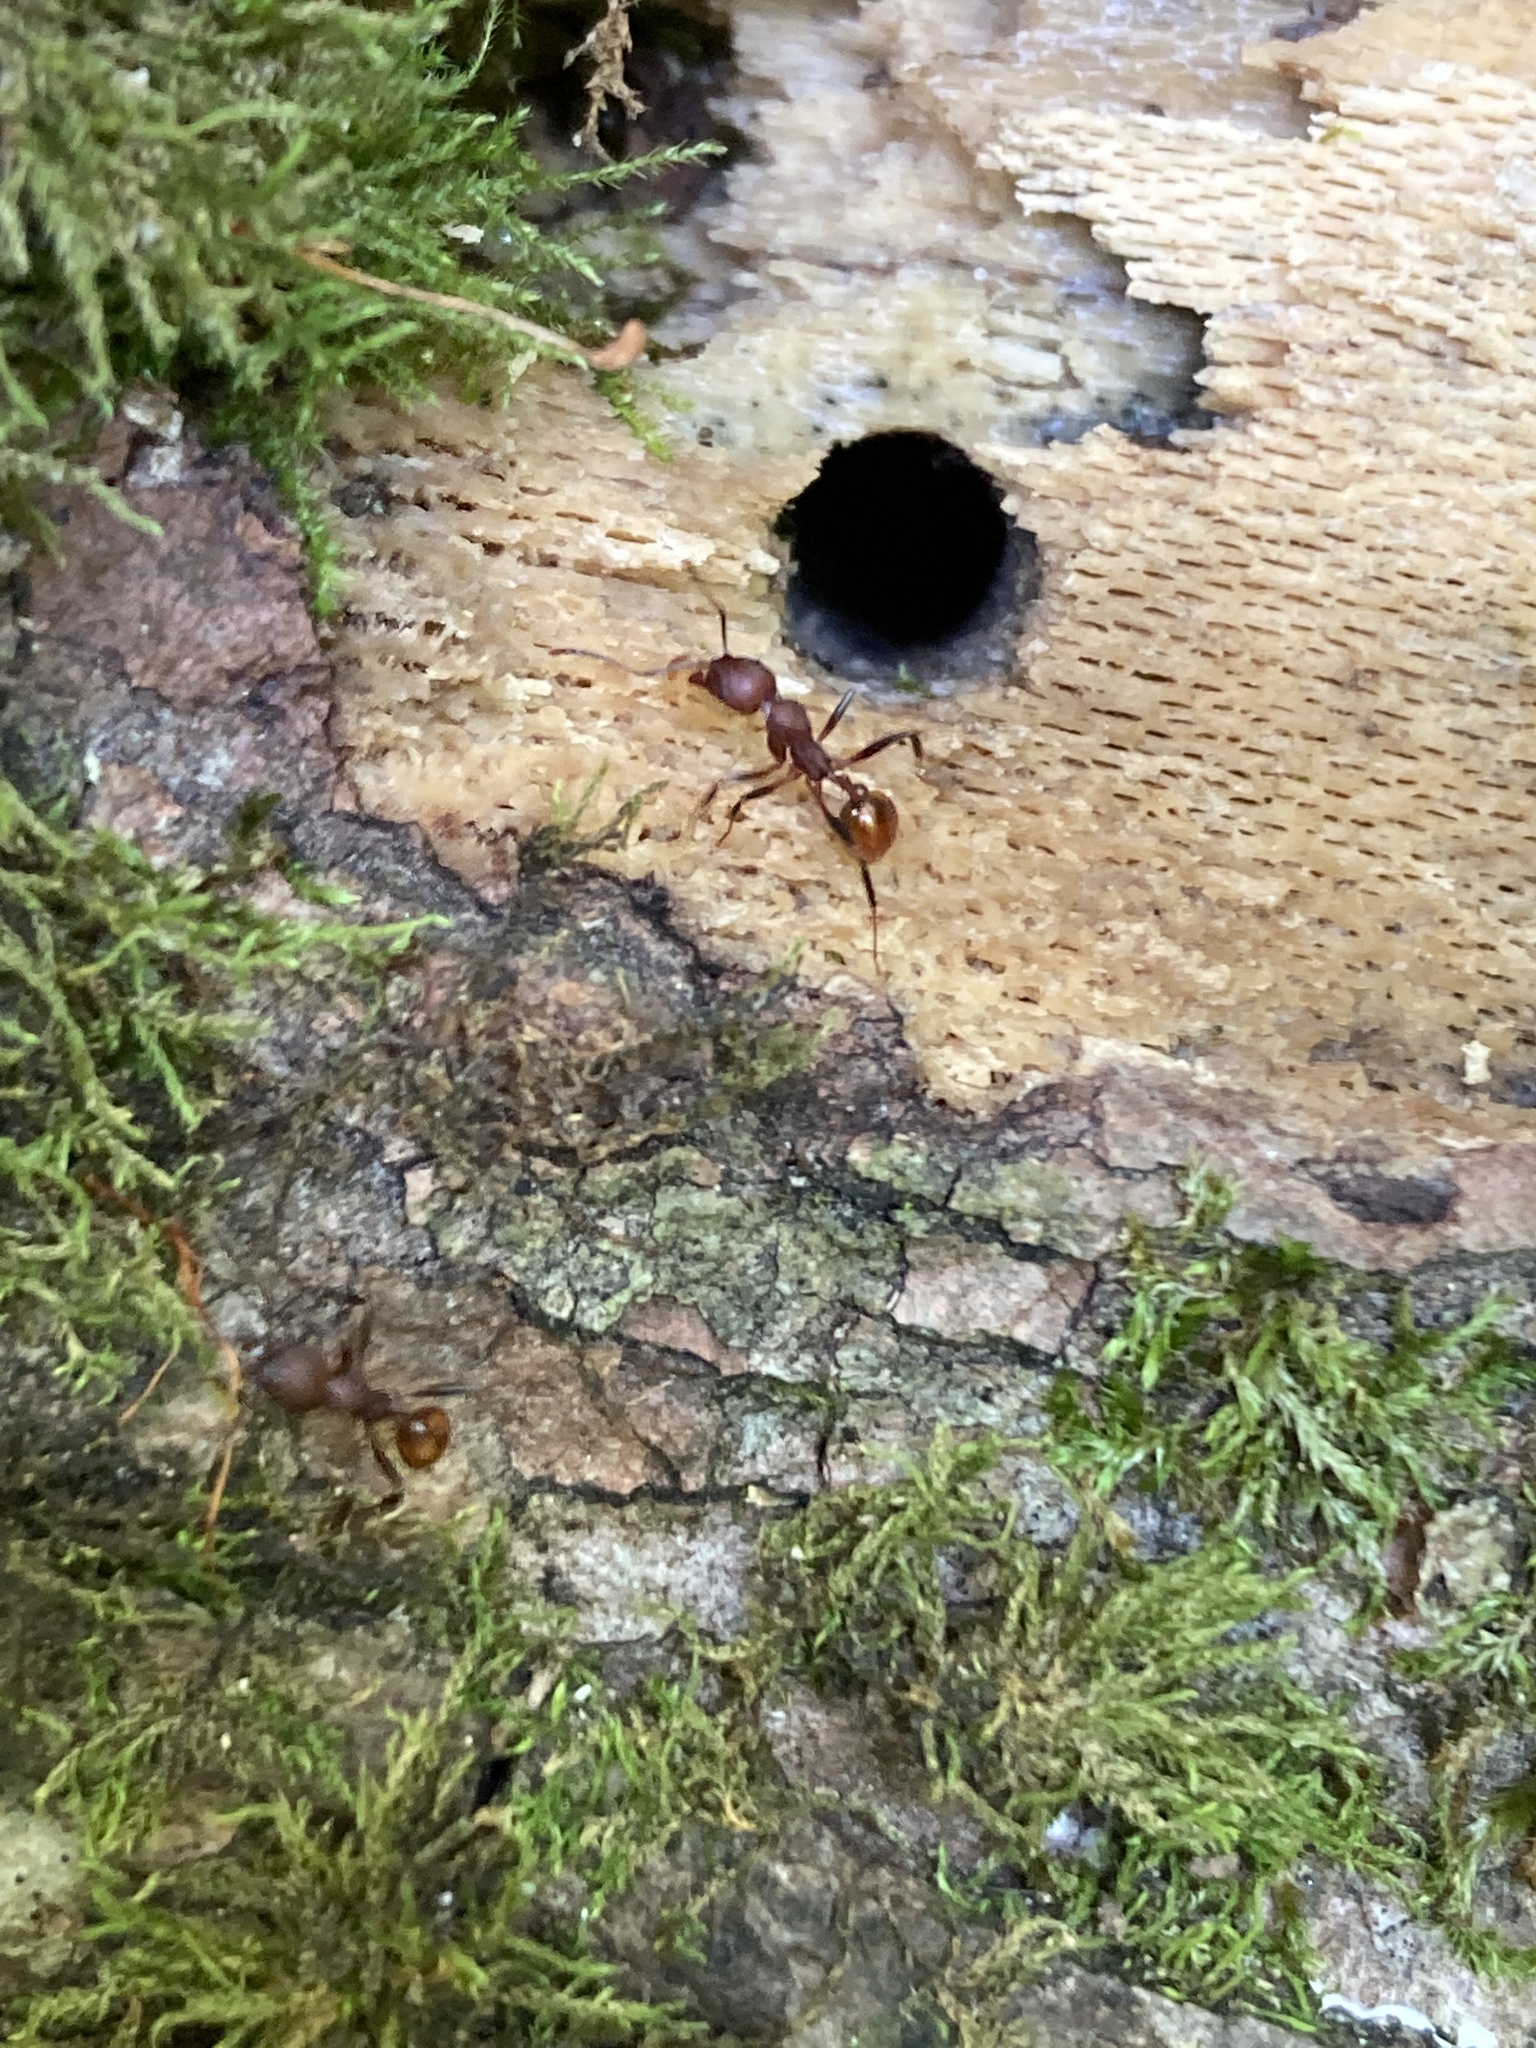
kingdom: Animalia
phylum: Arthropoda
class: Insecta
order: Hymenoptera
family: Formicidae
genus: Aphaenogaster
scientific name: Aphaenogaster tennesseensis
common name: Tennessee thread-waisted ant
